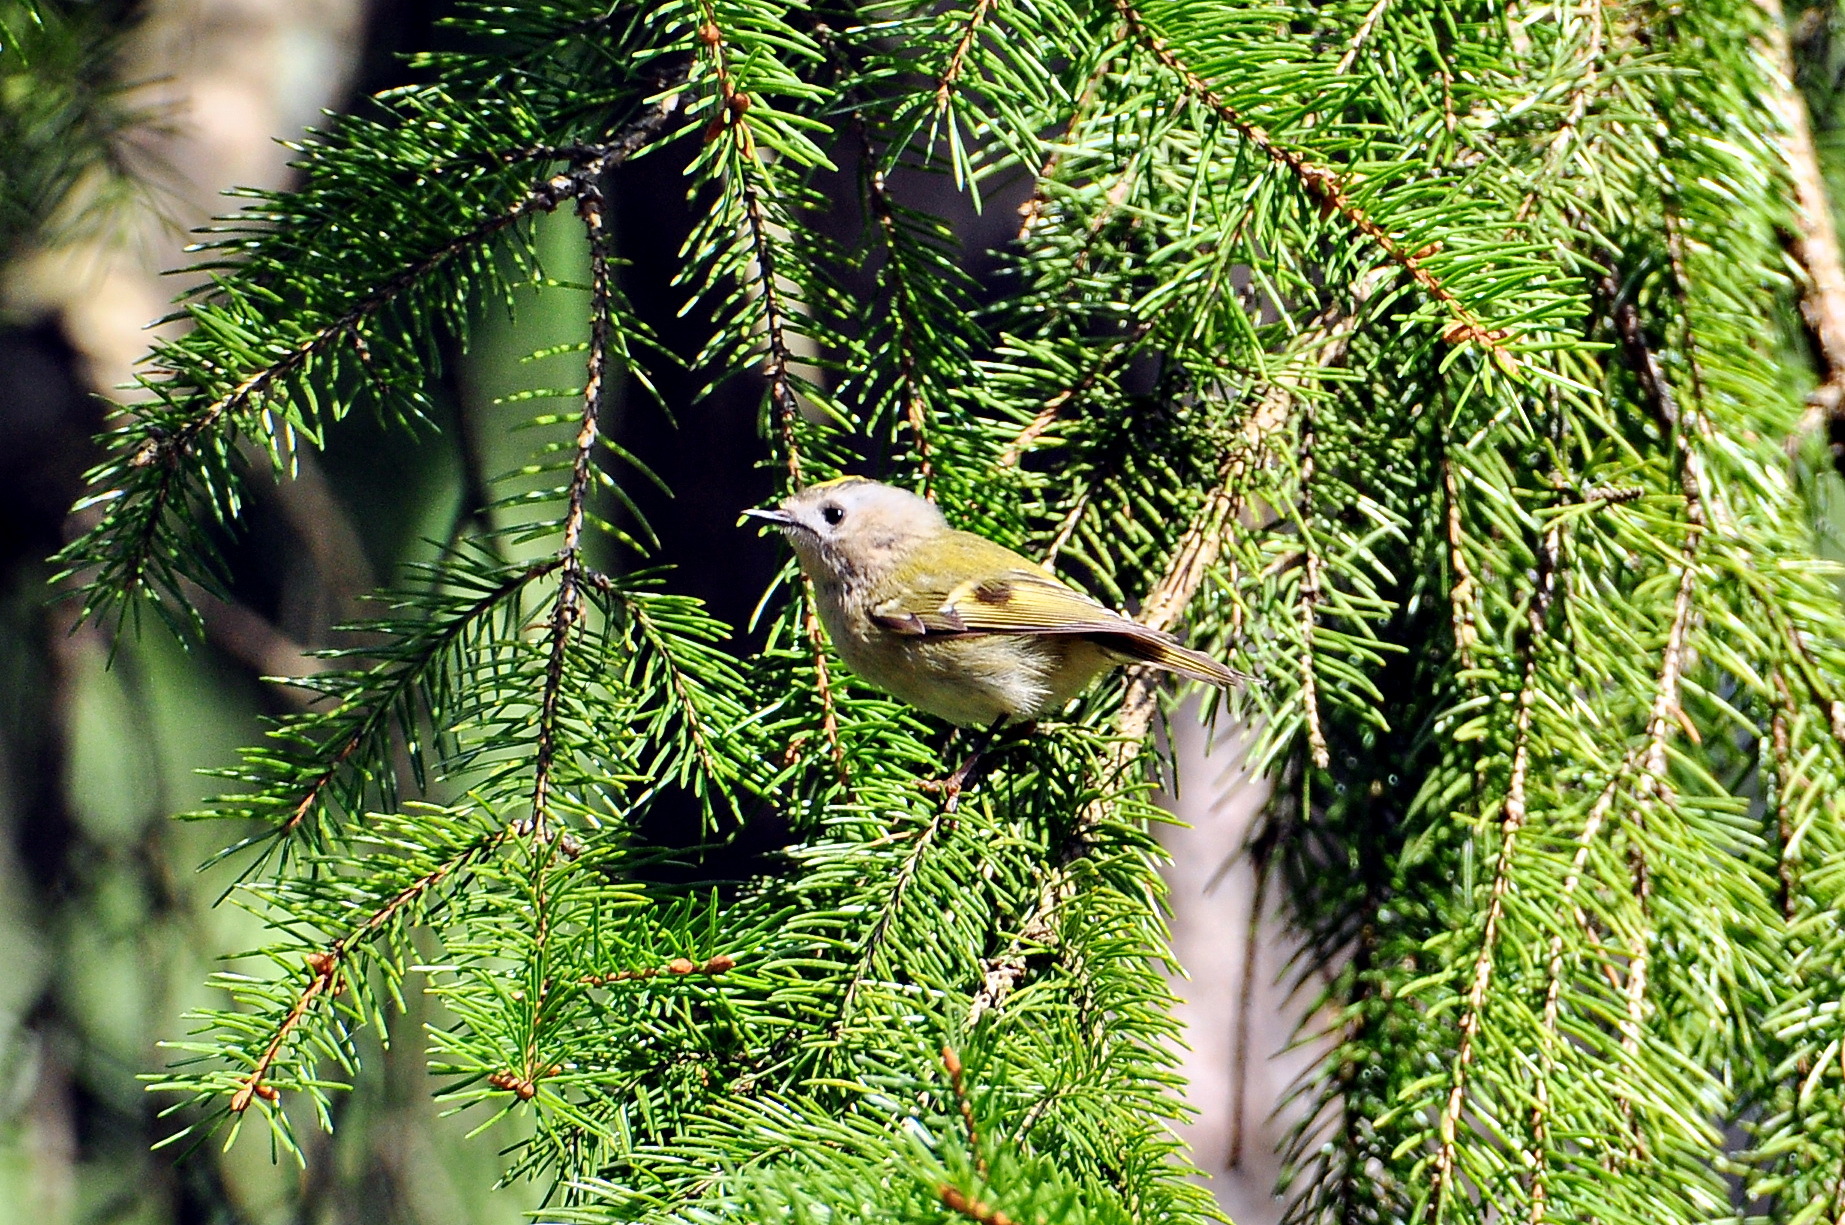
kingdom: Animalia
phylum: Chordata
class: Aves
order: Passeriformes
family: Regulidae
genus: Regulus
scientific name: Regulus regulus
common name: Goldcrest
